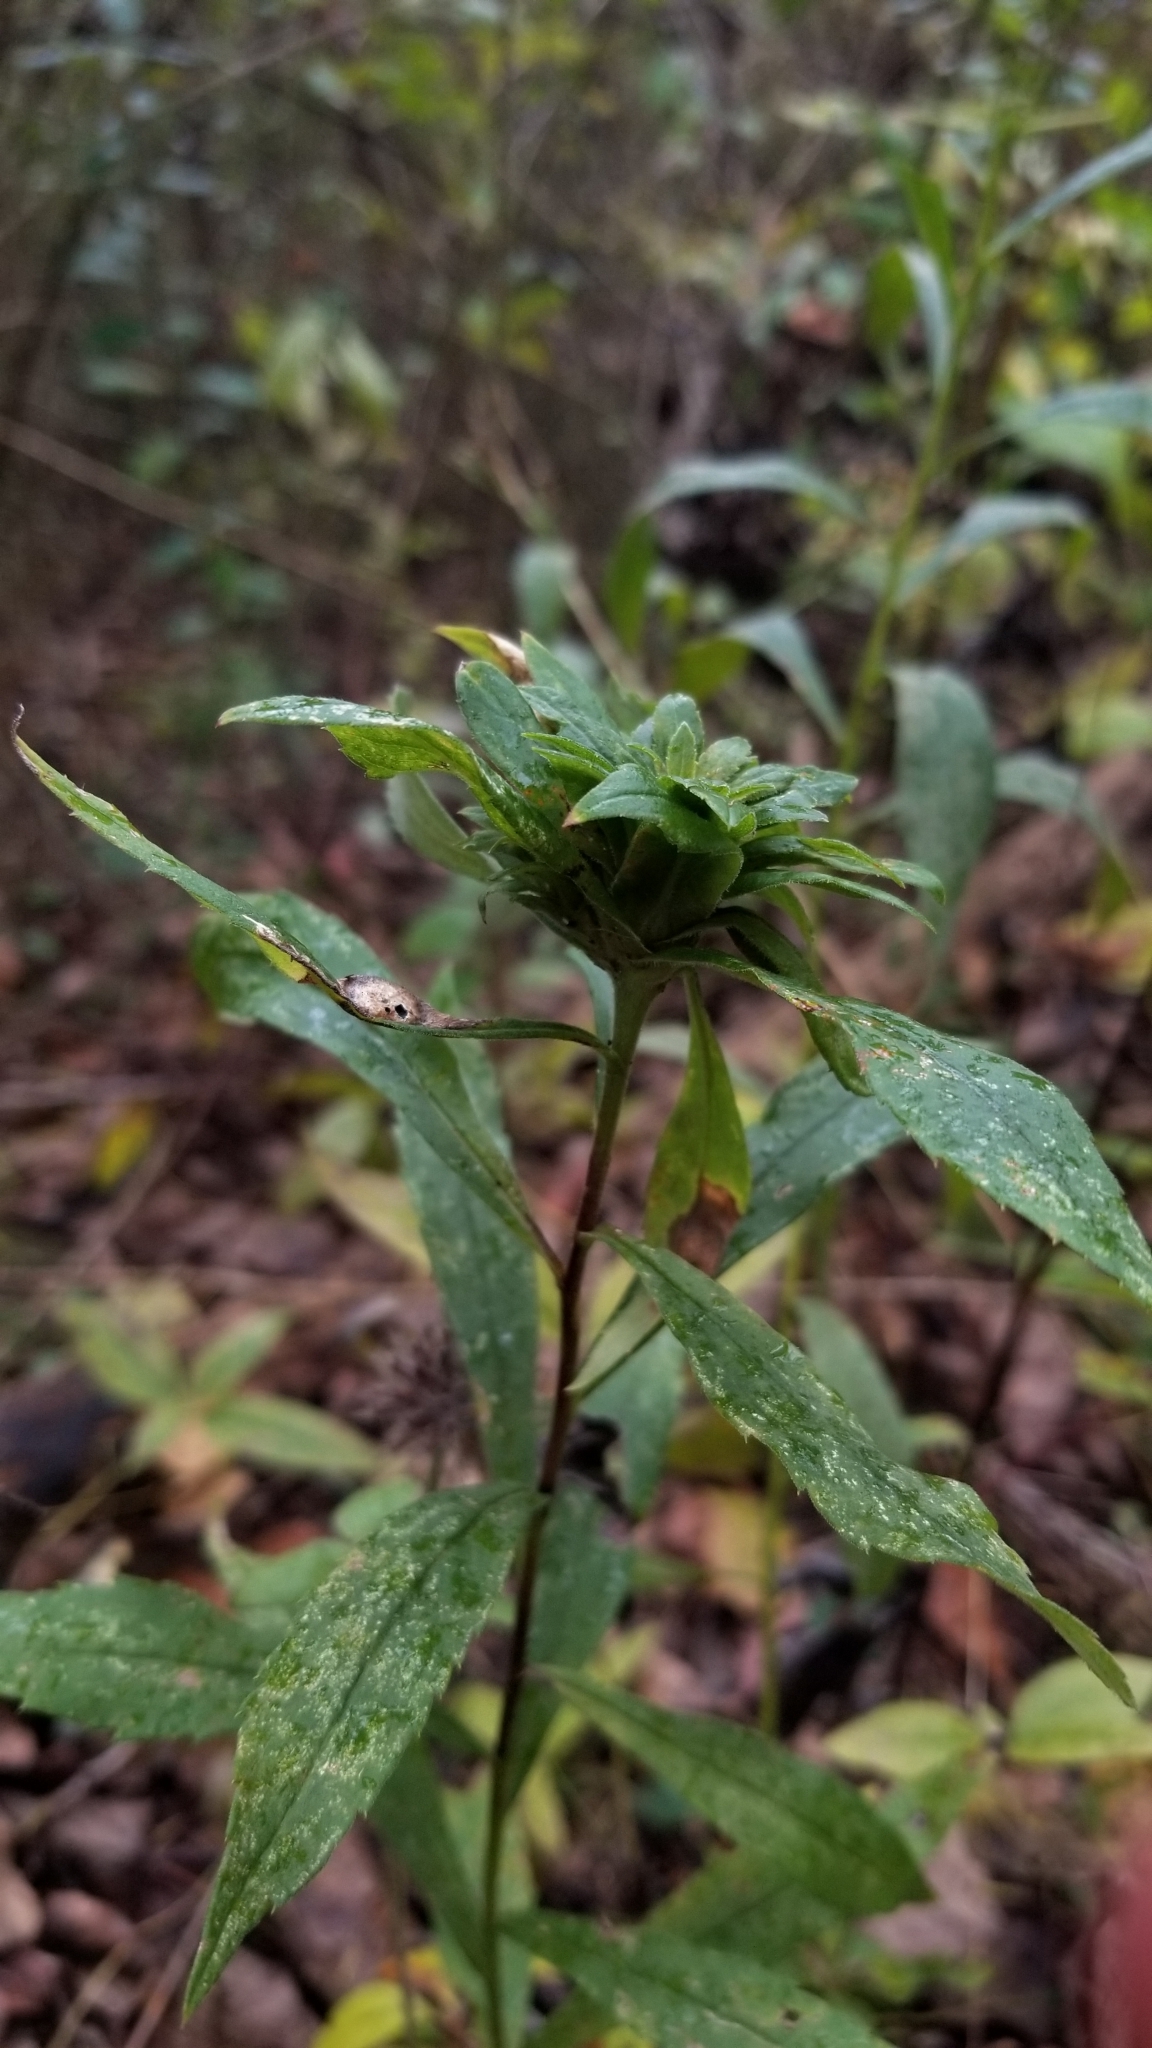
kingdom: Animalia
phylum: Arthropoda
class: Insecta
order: Diptera
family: Tephritidae
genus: Procecidochares
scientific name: Procecidochares atra
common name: Goldenrod brussels sprout gall fly
